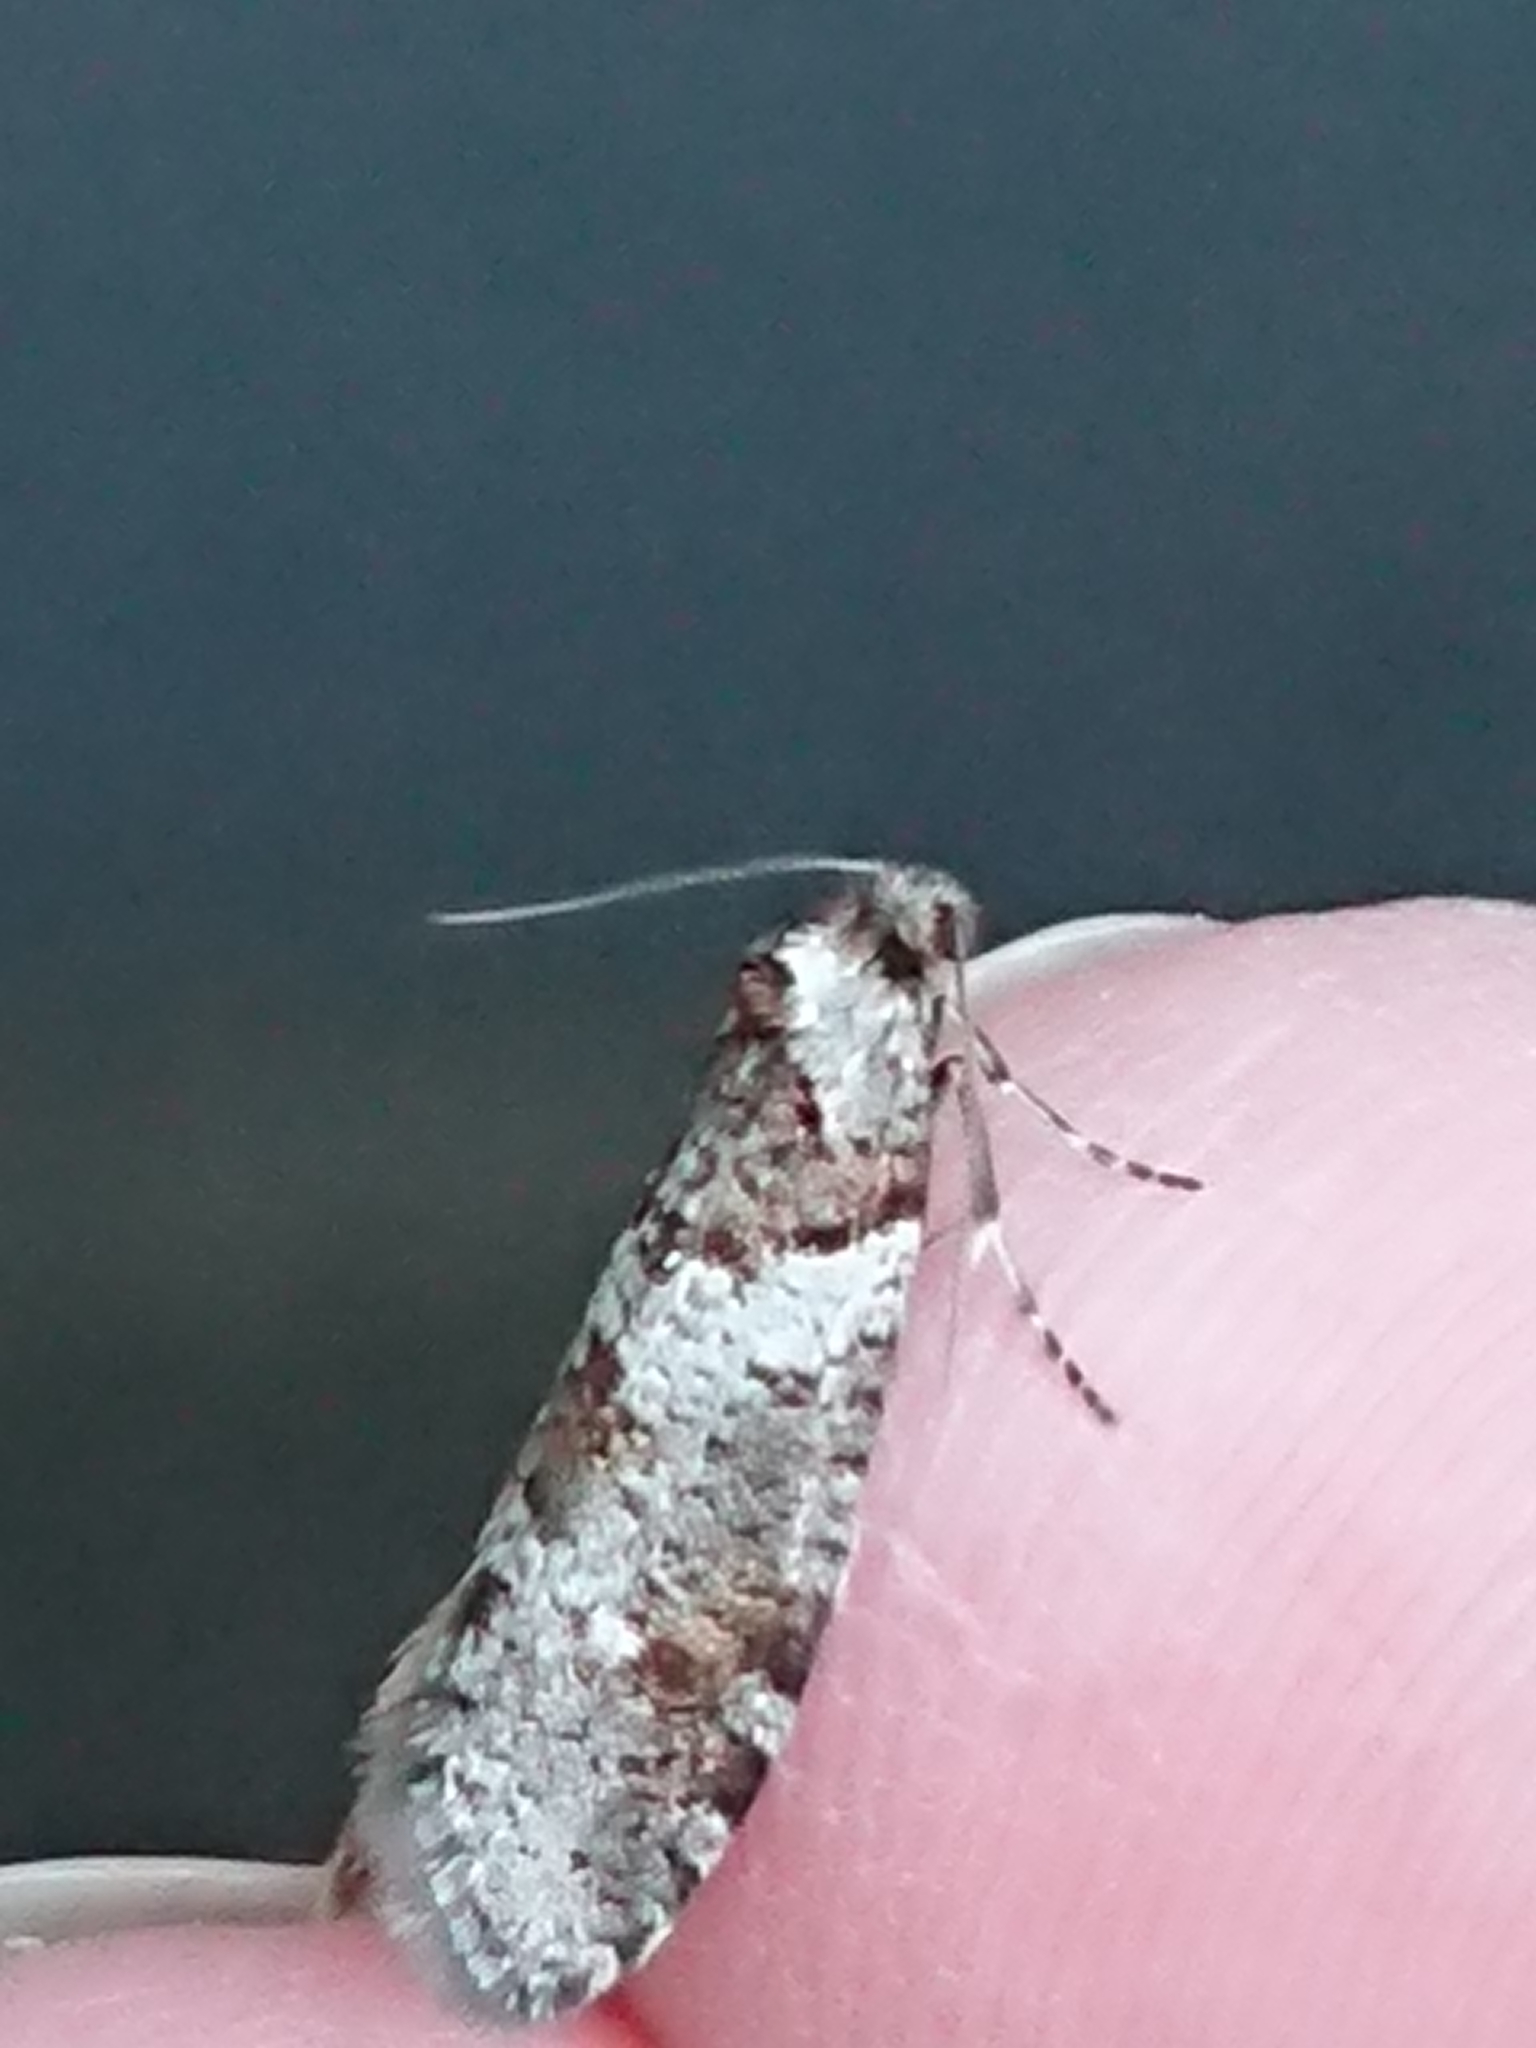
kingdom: Animalia
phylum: Arthropoda
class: Insecta
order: Lepidoptera
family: Psychidae
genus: Lepidoscia
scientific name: Lepidoscia heliochares
